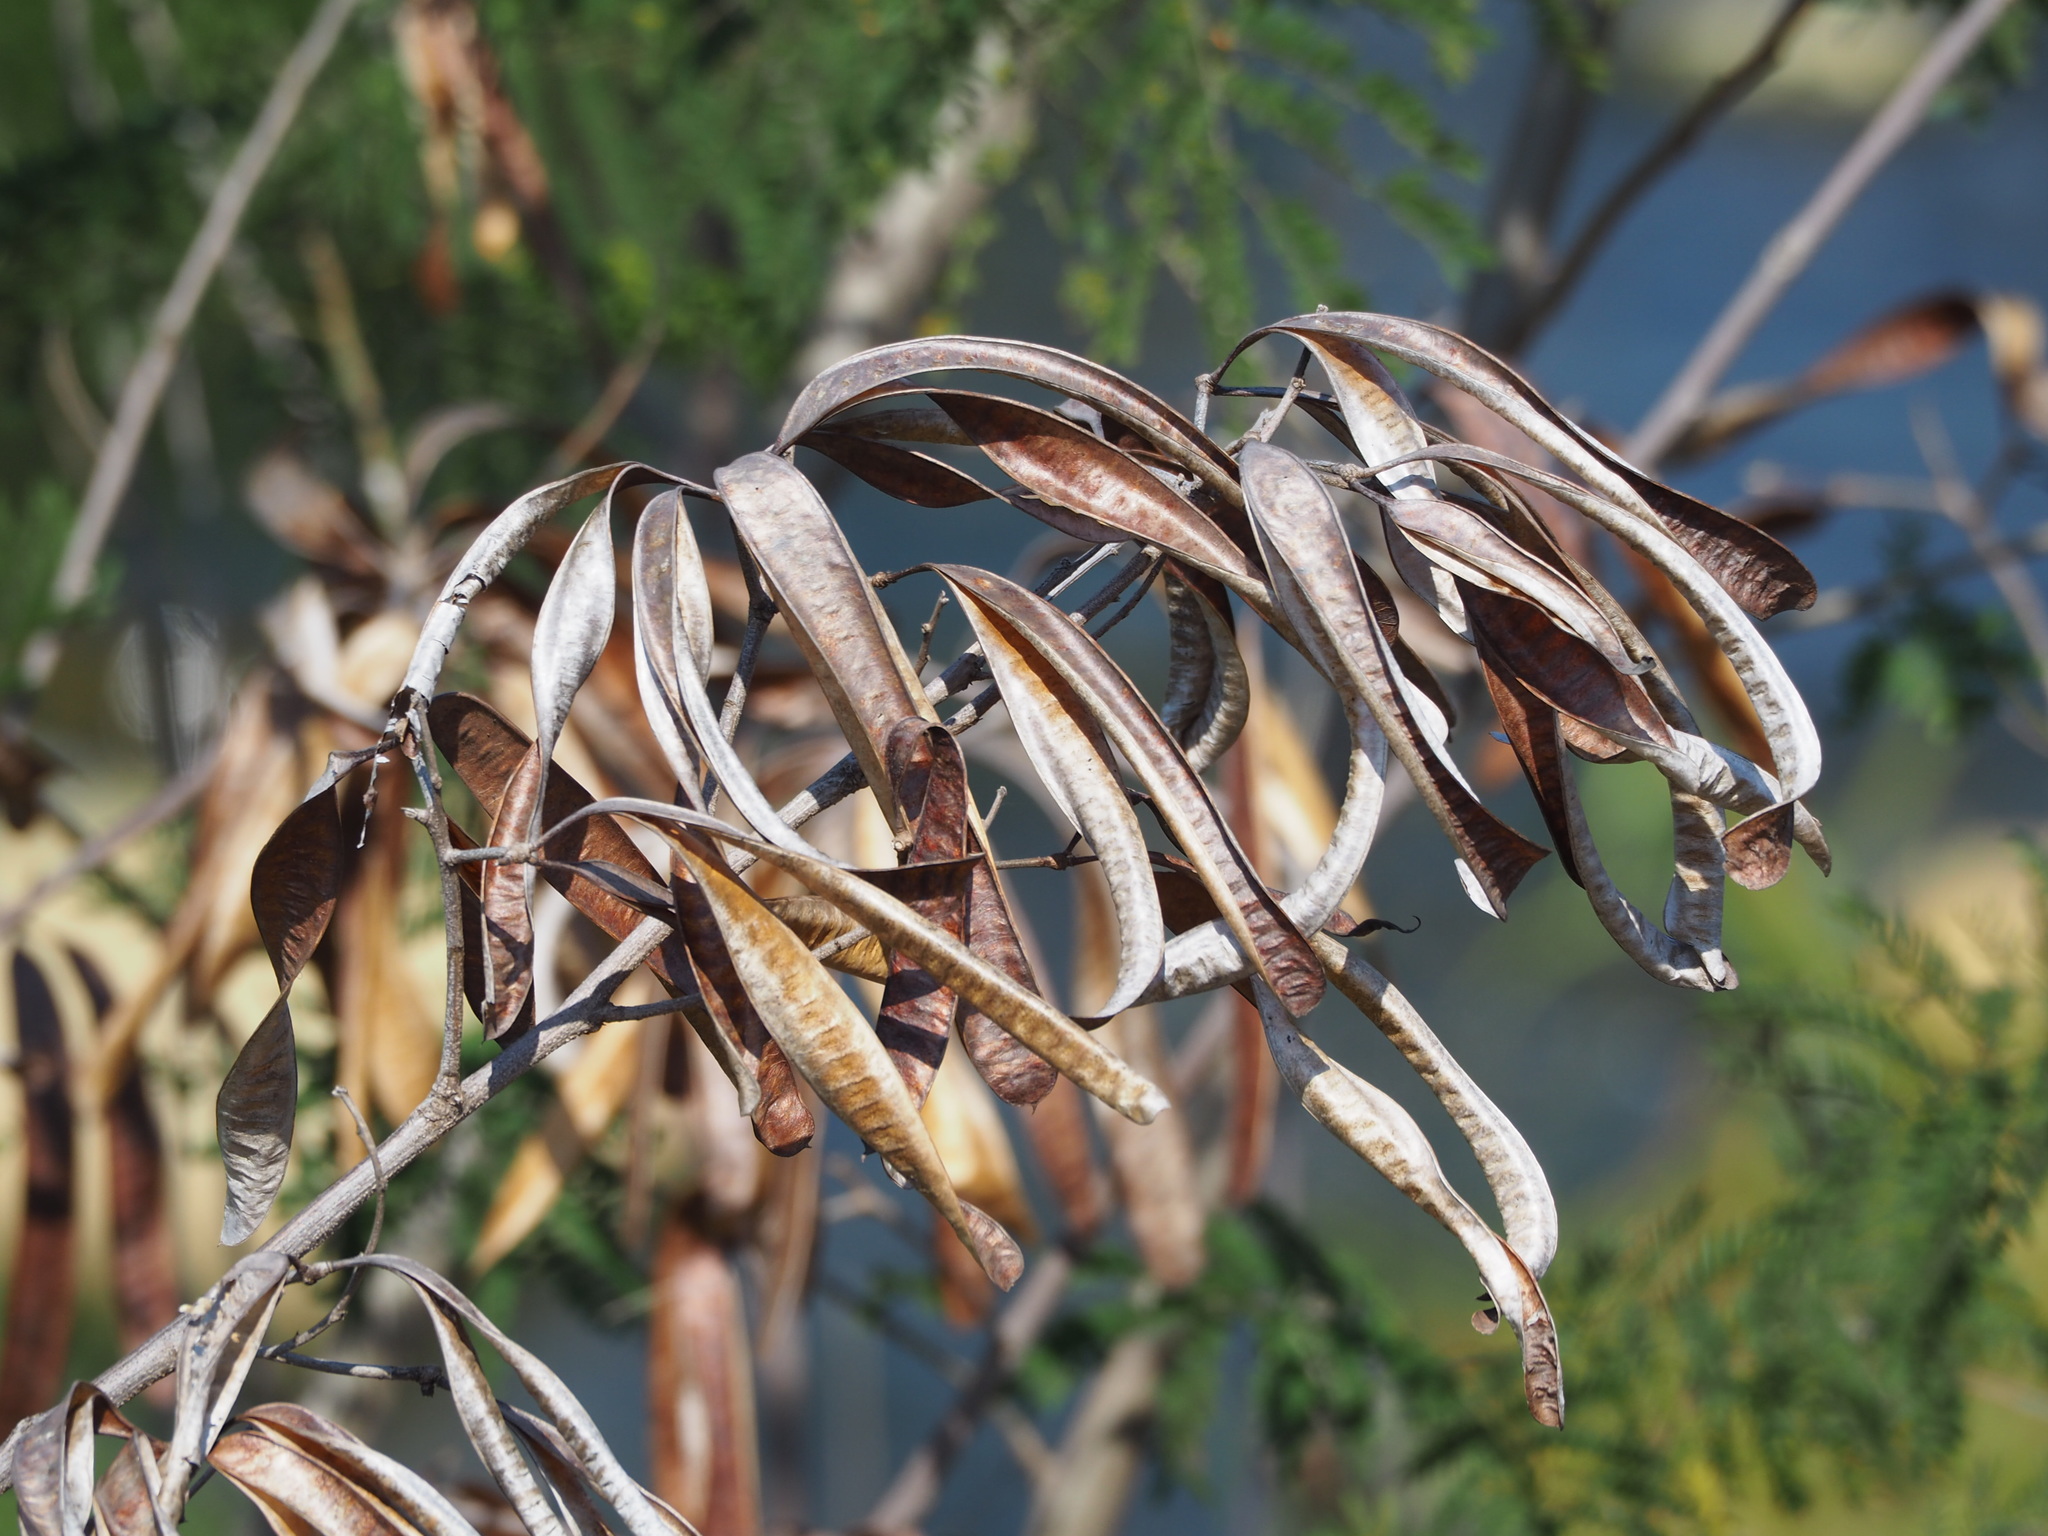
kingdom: Plantae
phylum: Tracheophyta
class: Magnoliopsida
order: Fabales
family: Fabaceae
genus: Leucaena
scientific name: Leucaena leucocephala
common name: White leadtree
